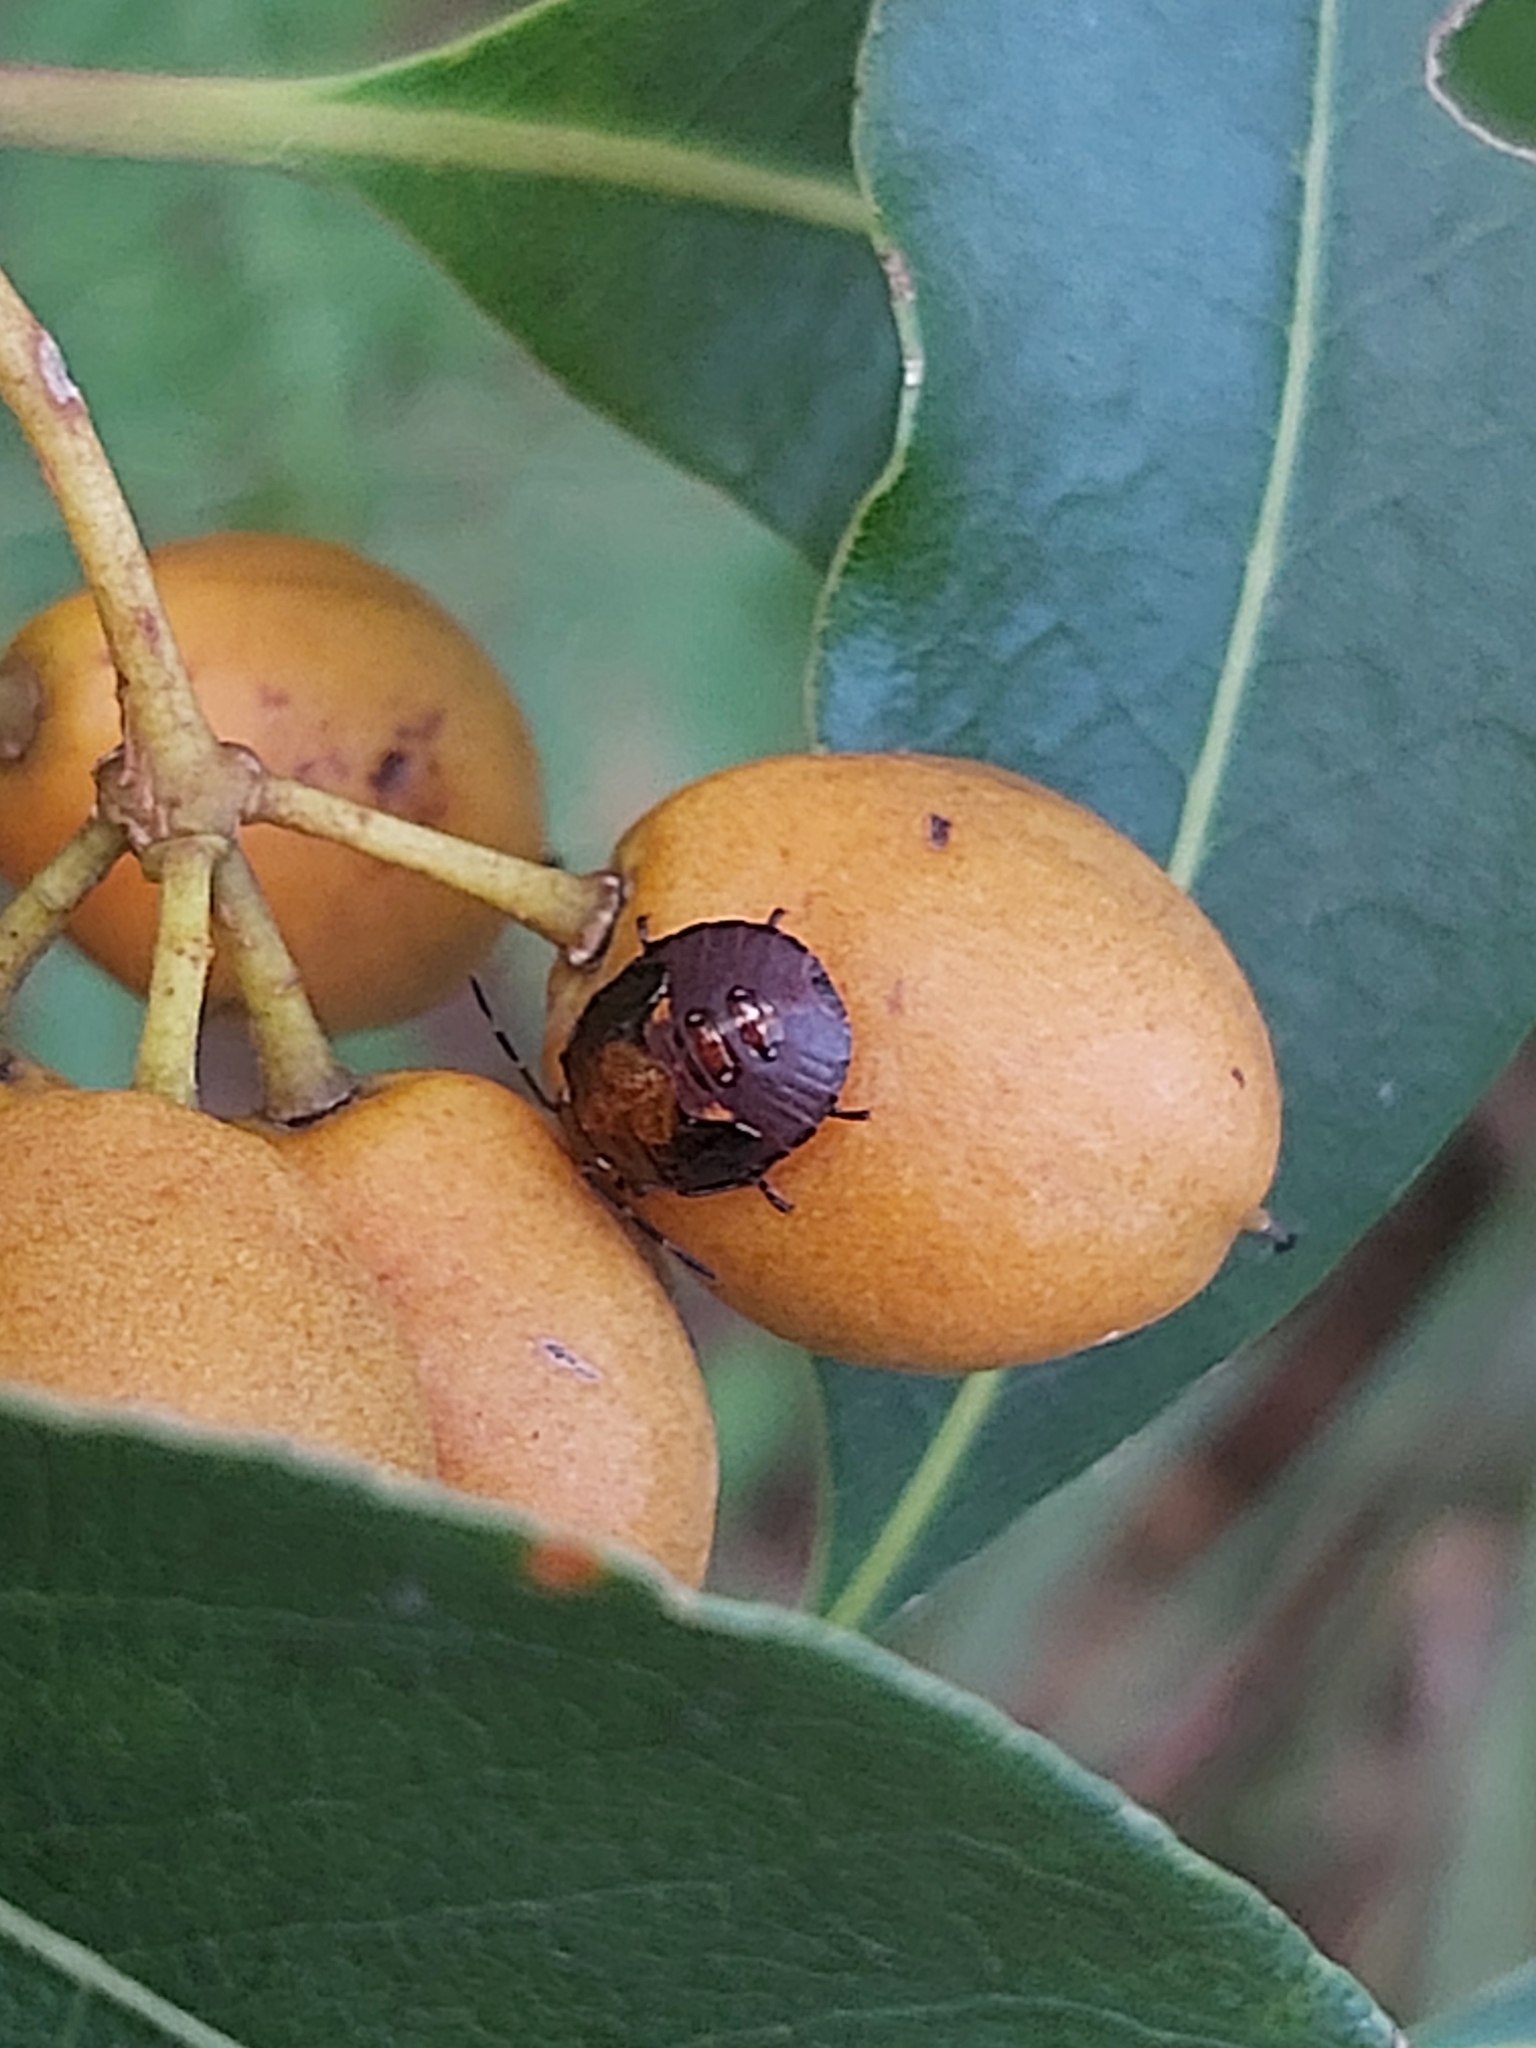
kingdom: Animalia
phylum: Arthropoda
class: Insecta
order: Hemiptera
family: Pentatomidae
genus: Monteithiella
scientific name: Monteithiella
